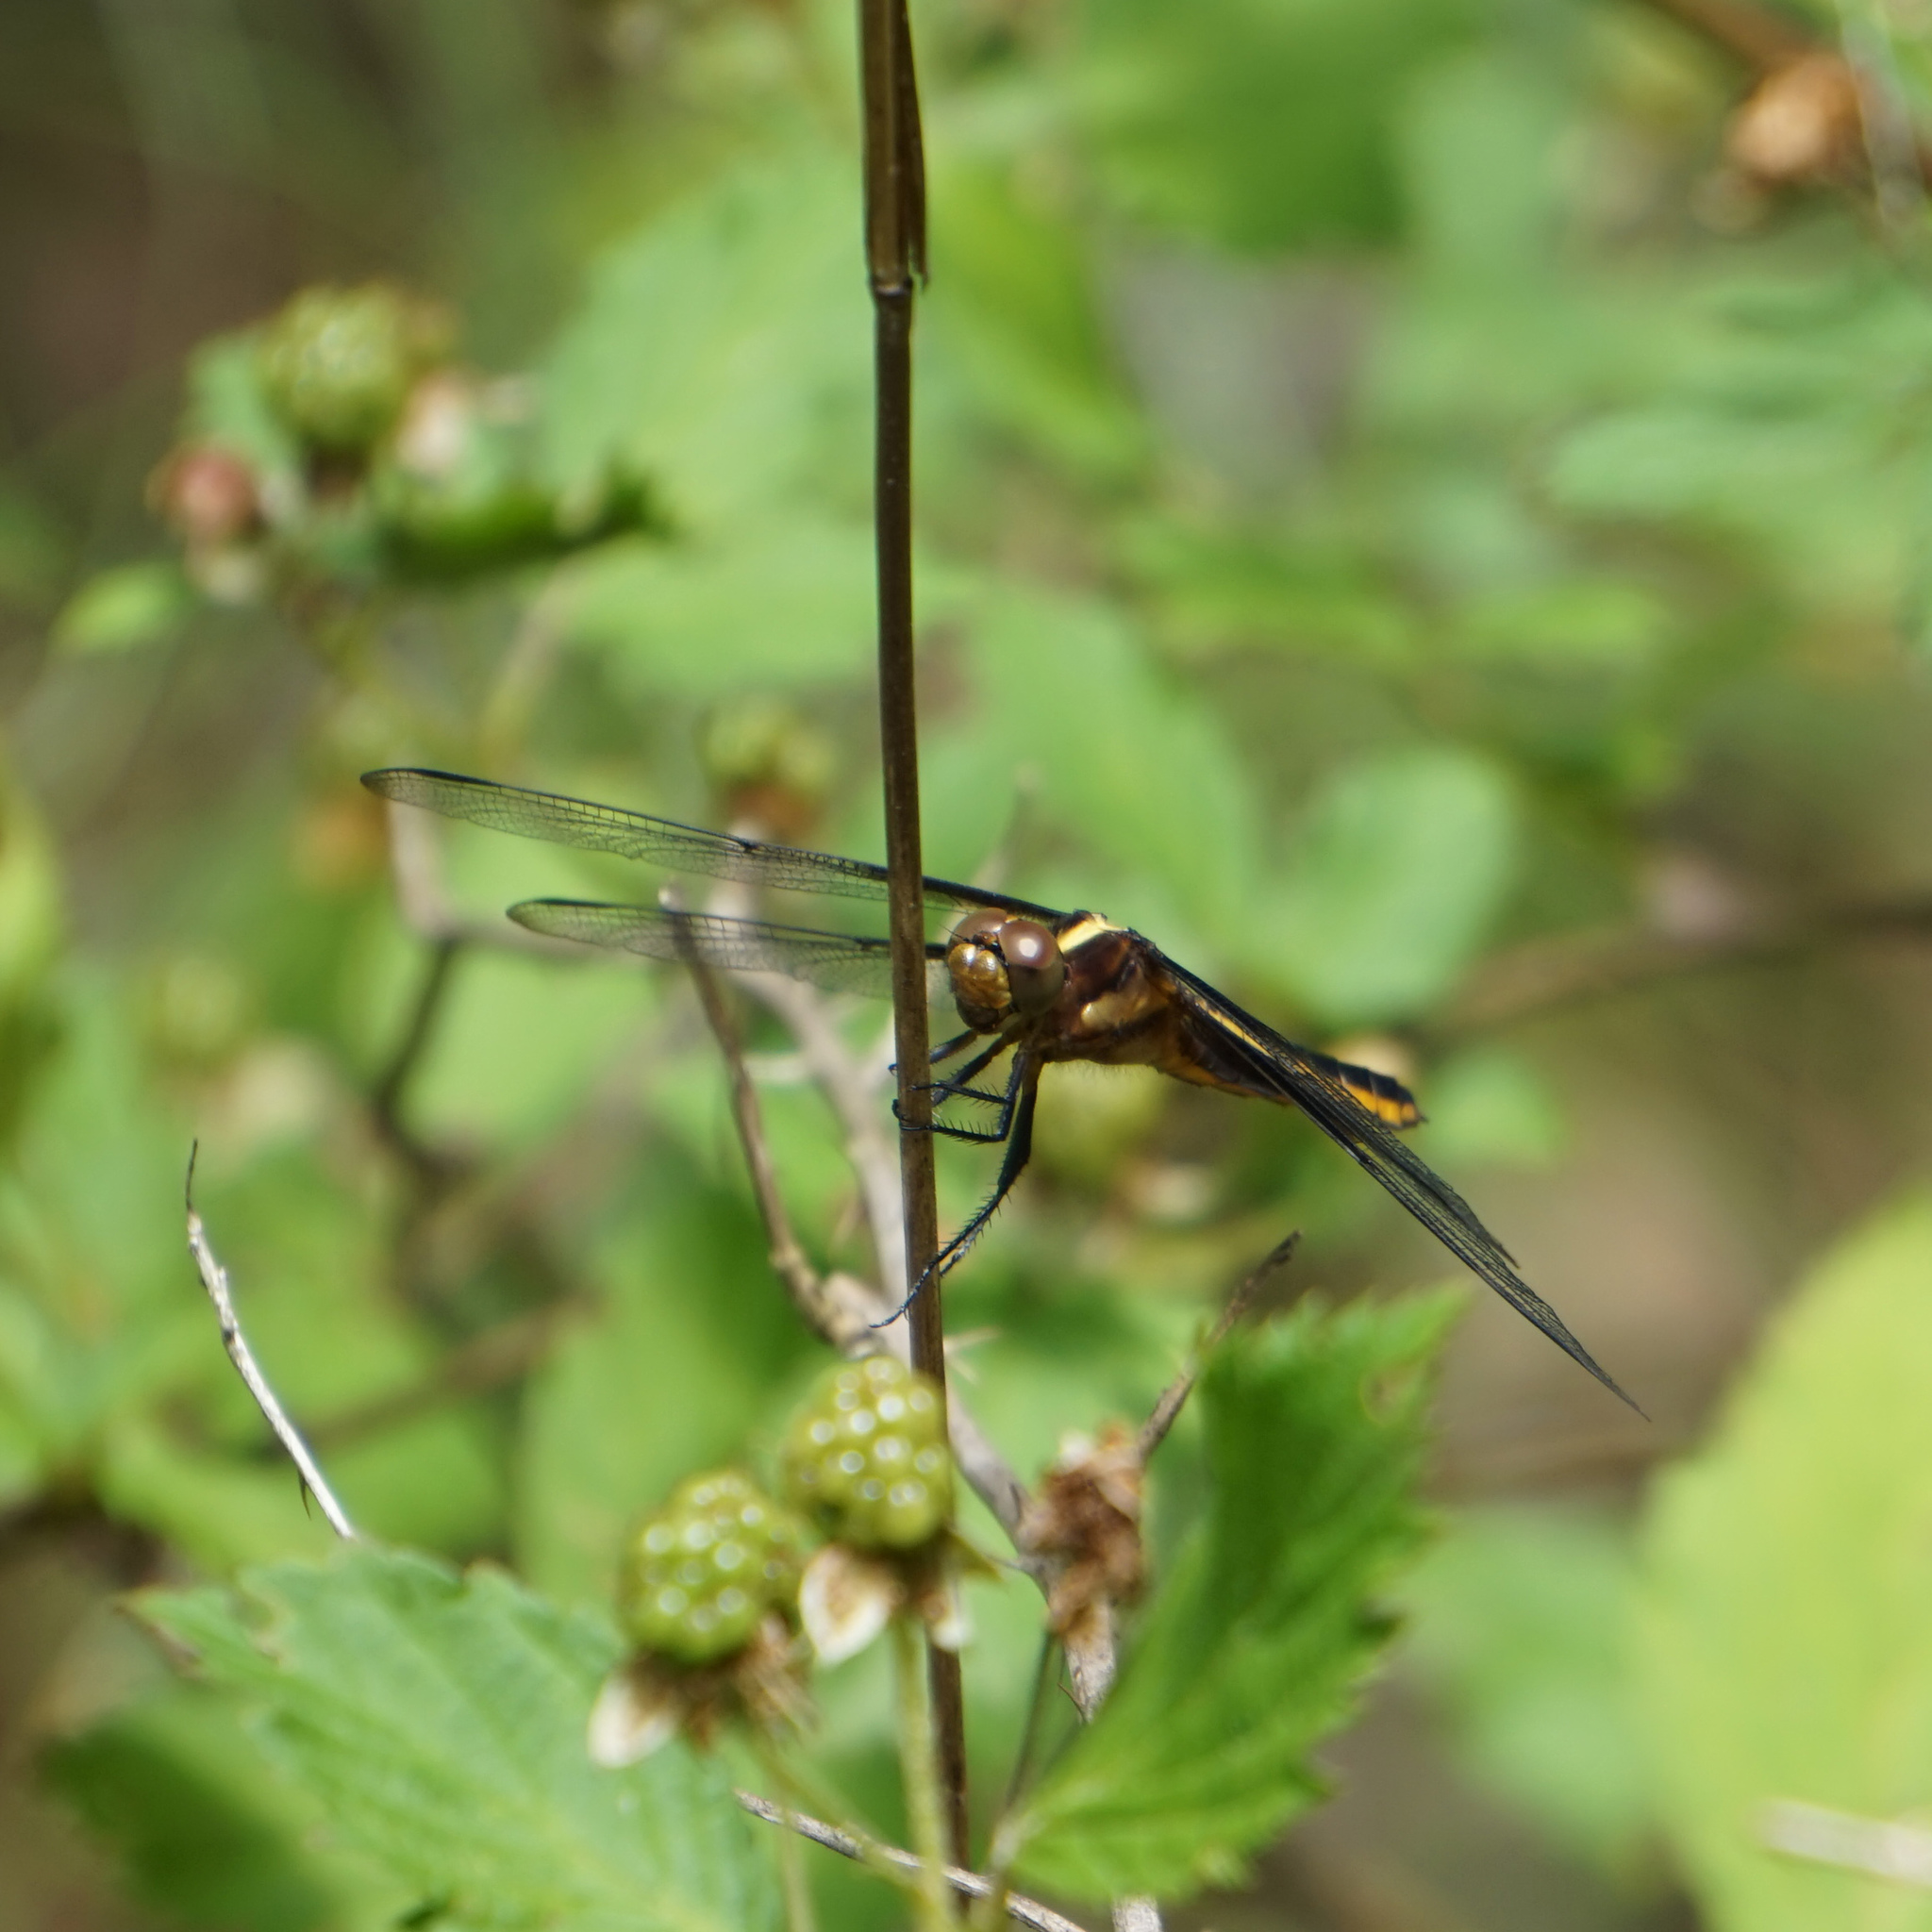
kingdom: Animalia
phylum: Arthropoda
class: Insecta
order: Odonata
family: Libellulidae
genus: Libellula
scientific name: Libellula luctuosa
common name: Widow skimmer
